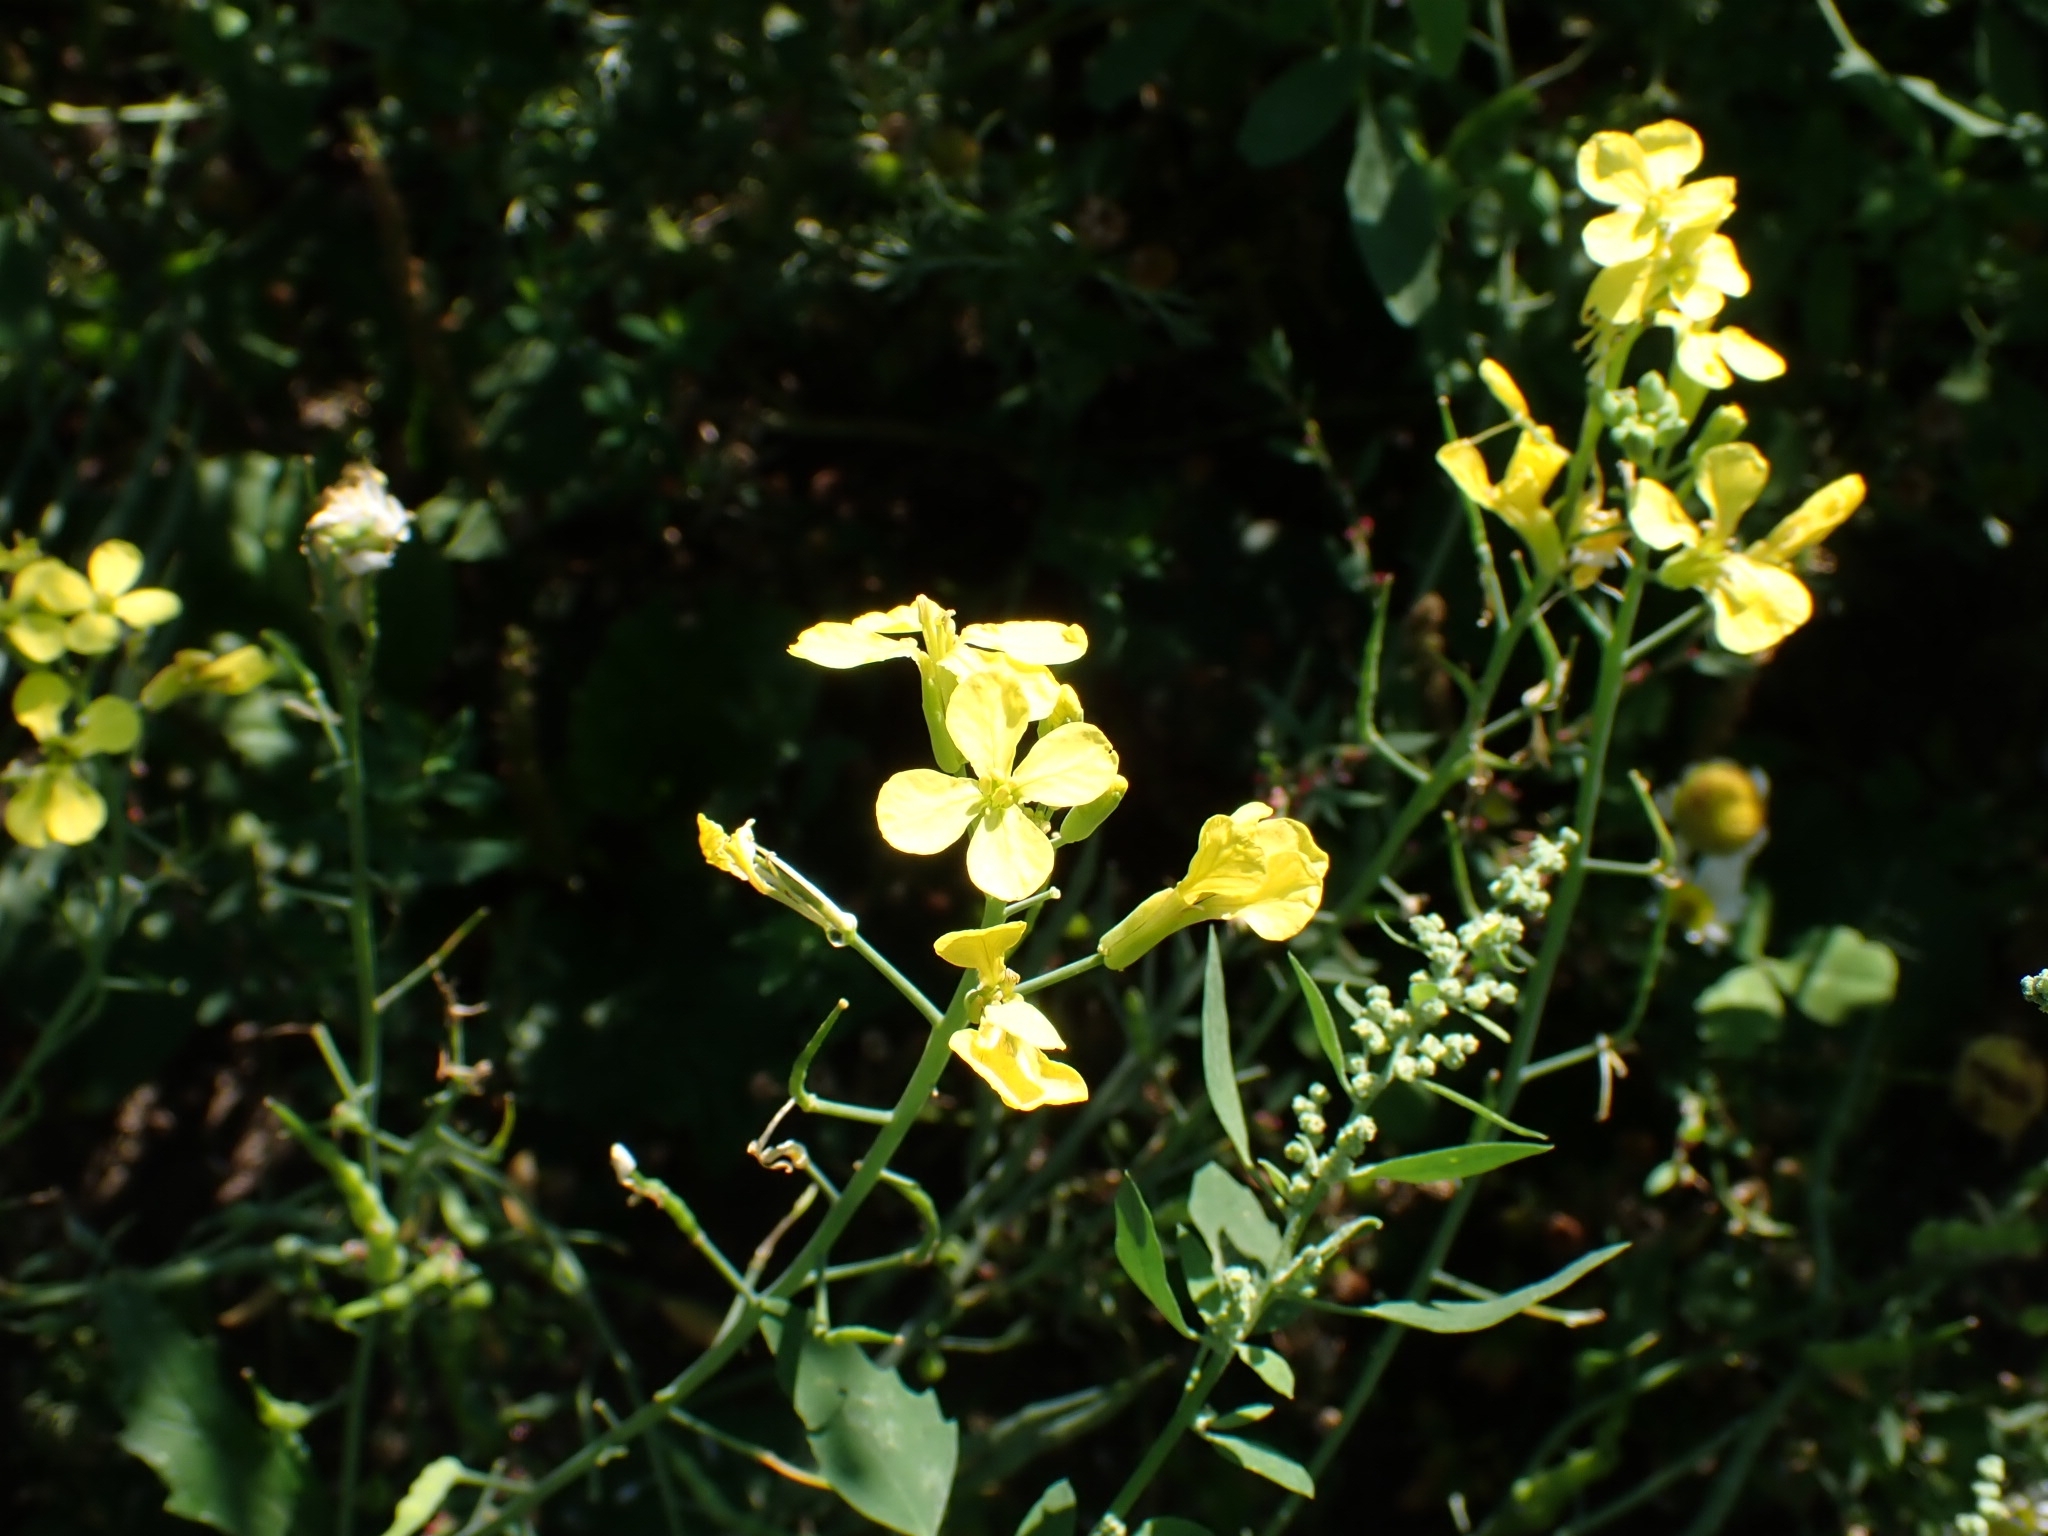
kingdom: Plantae
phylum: Tracheophyta
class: Magnoliopsida
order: Brassicales
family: Brassicaceae
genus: Raphanus
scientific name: Raphanus raphanistrum
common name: Wild radish
